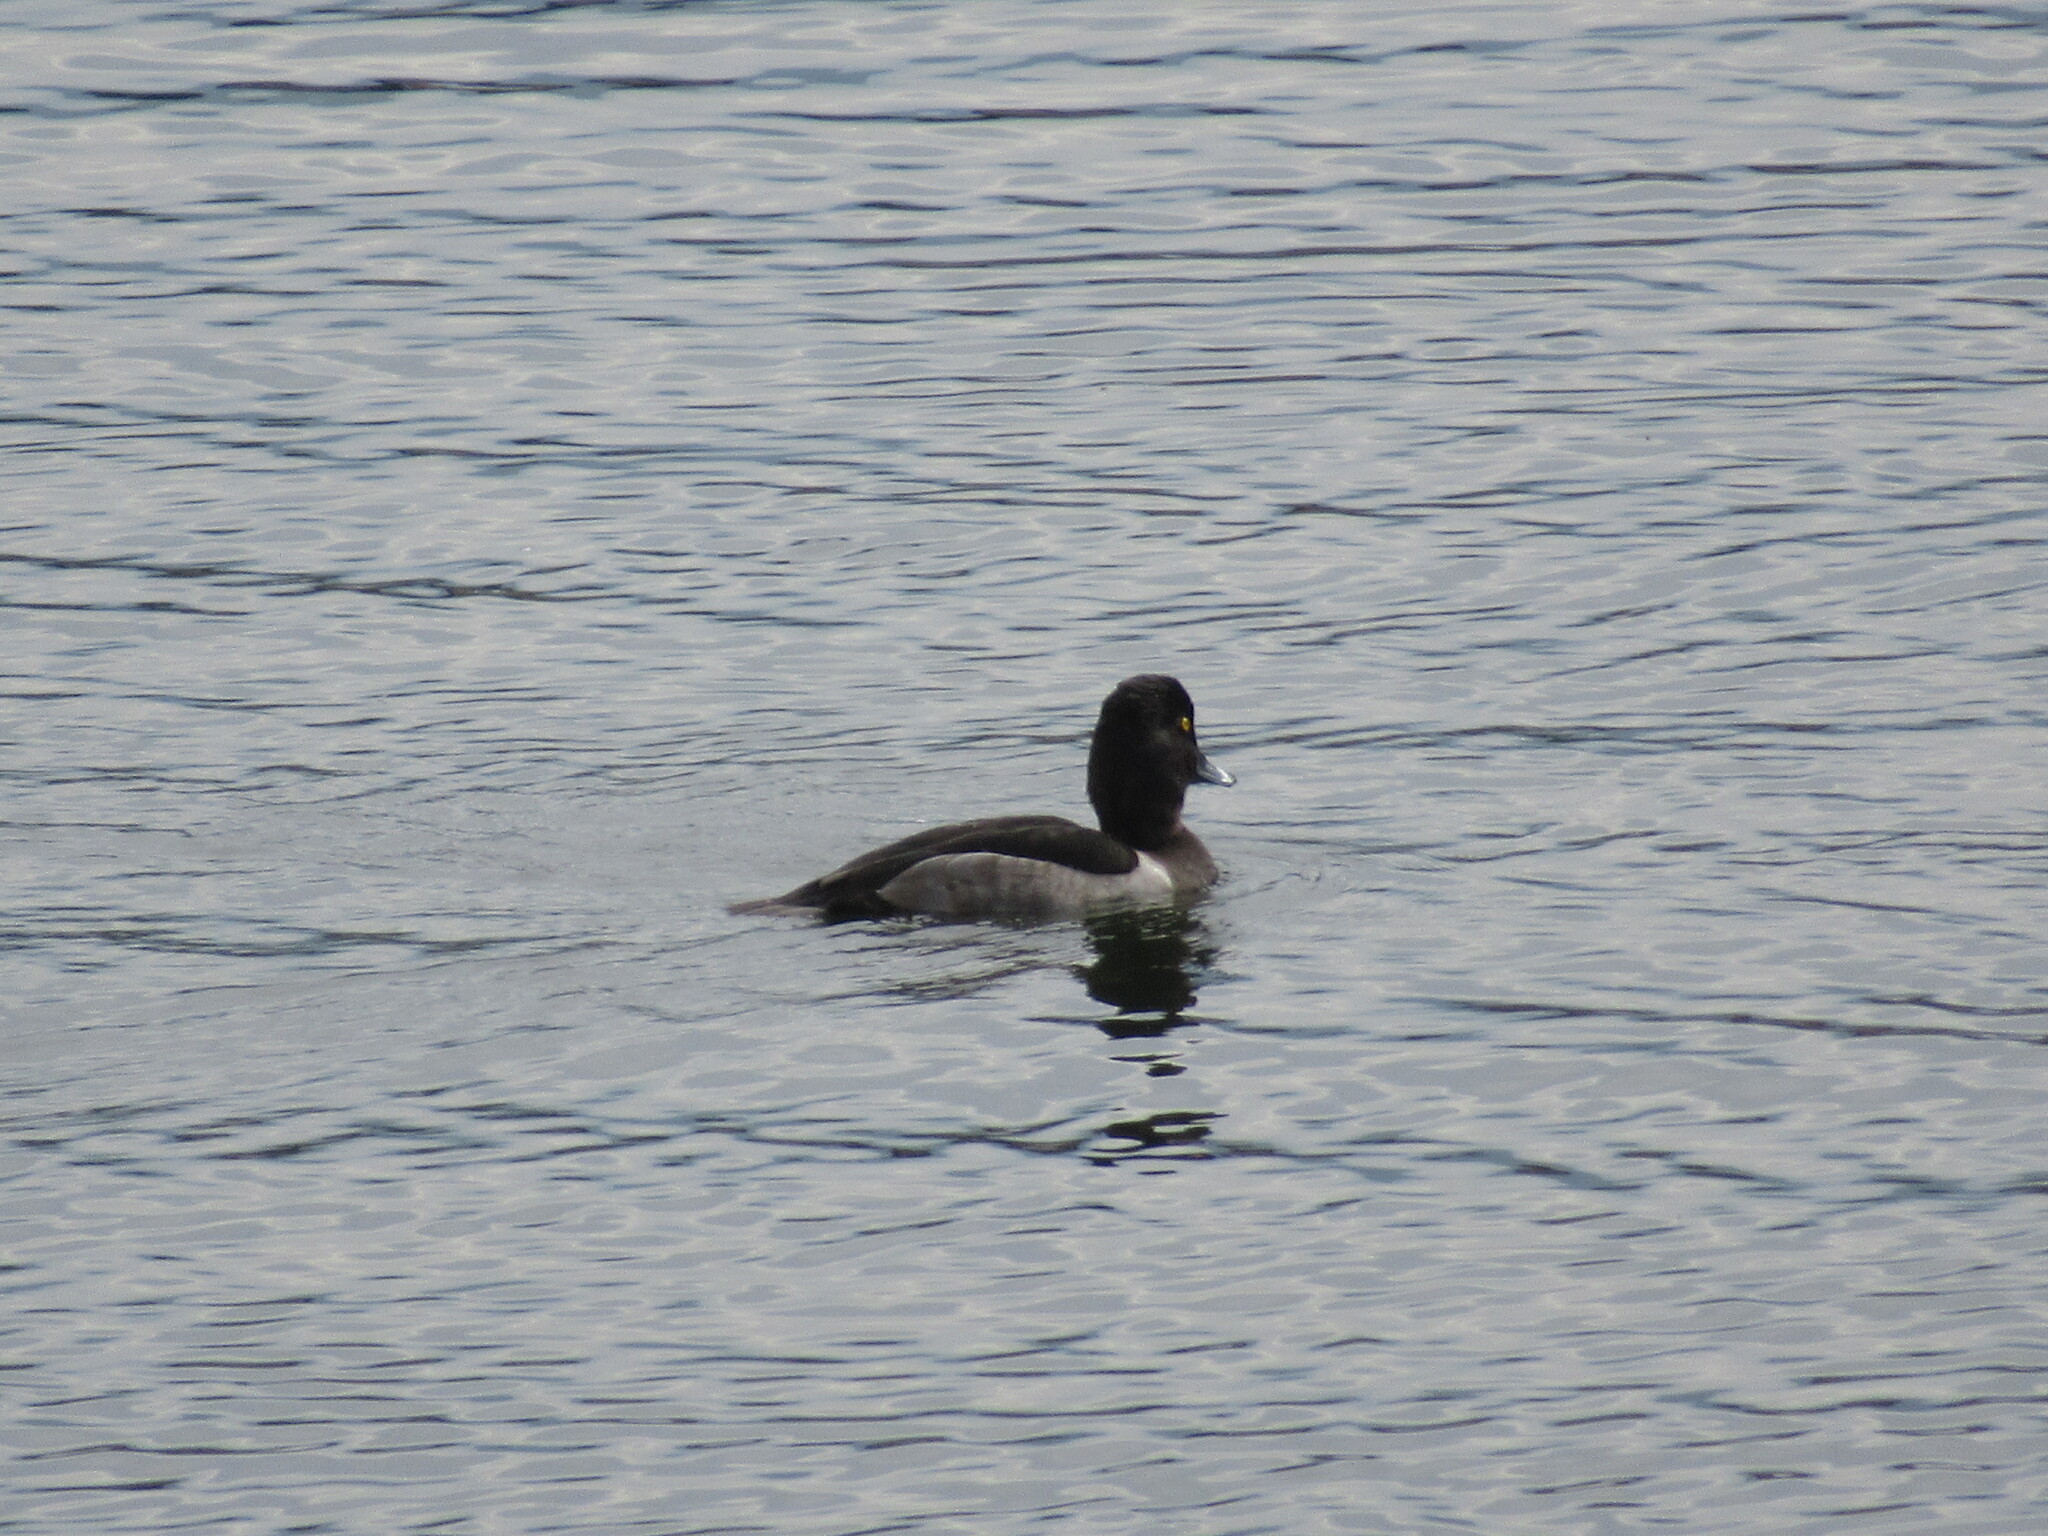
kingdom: Animalia
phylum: Chordata
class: Aves
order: Anseriformes
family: Anatidae
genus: Aythya
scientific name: Aythya collaris
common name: Ring-necked duck
